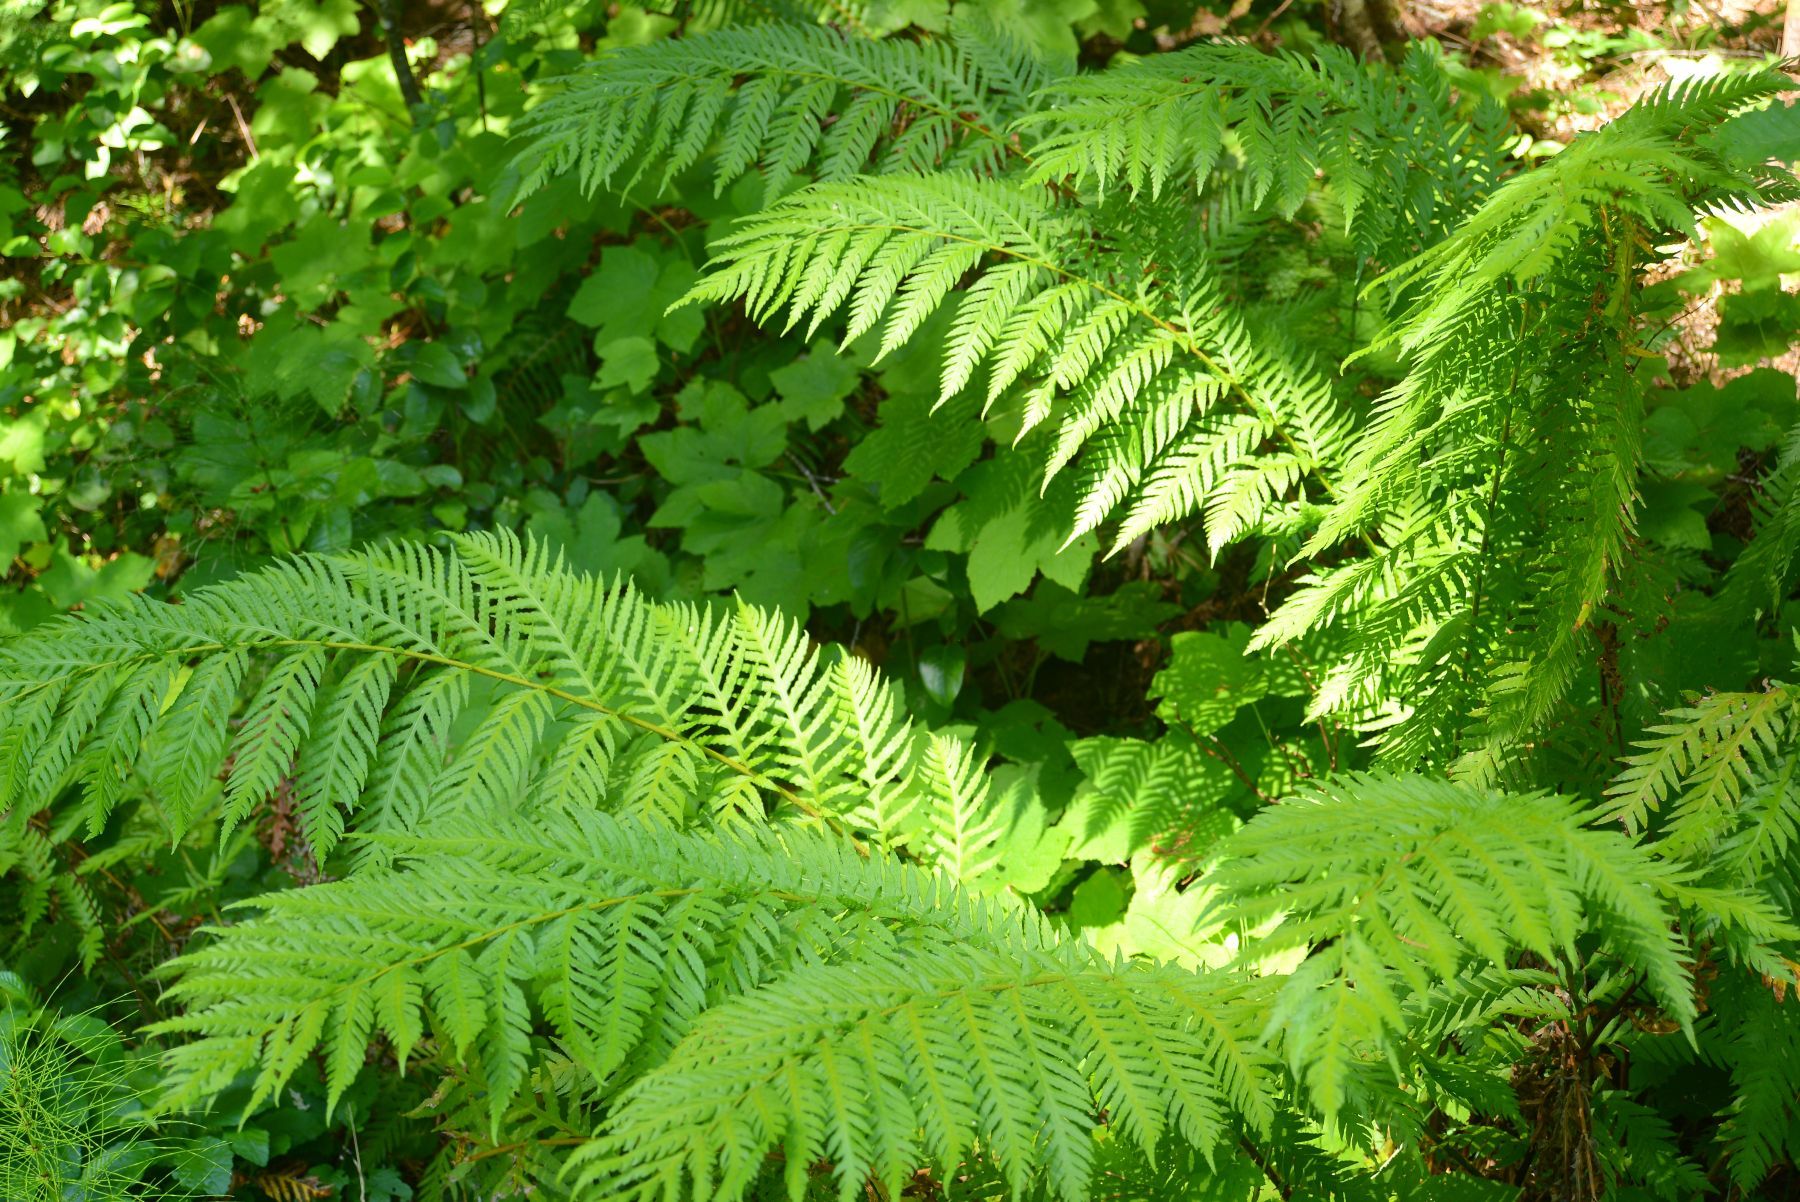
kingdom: Plantae
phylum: Tracheophyta
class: Polypodiopsida
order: Polypodiales
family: Blechnaceae
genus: Woodwardia
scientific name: Woodwardia fimbriata
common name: Giant chain fern
